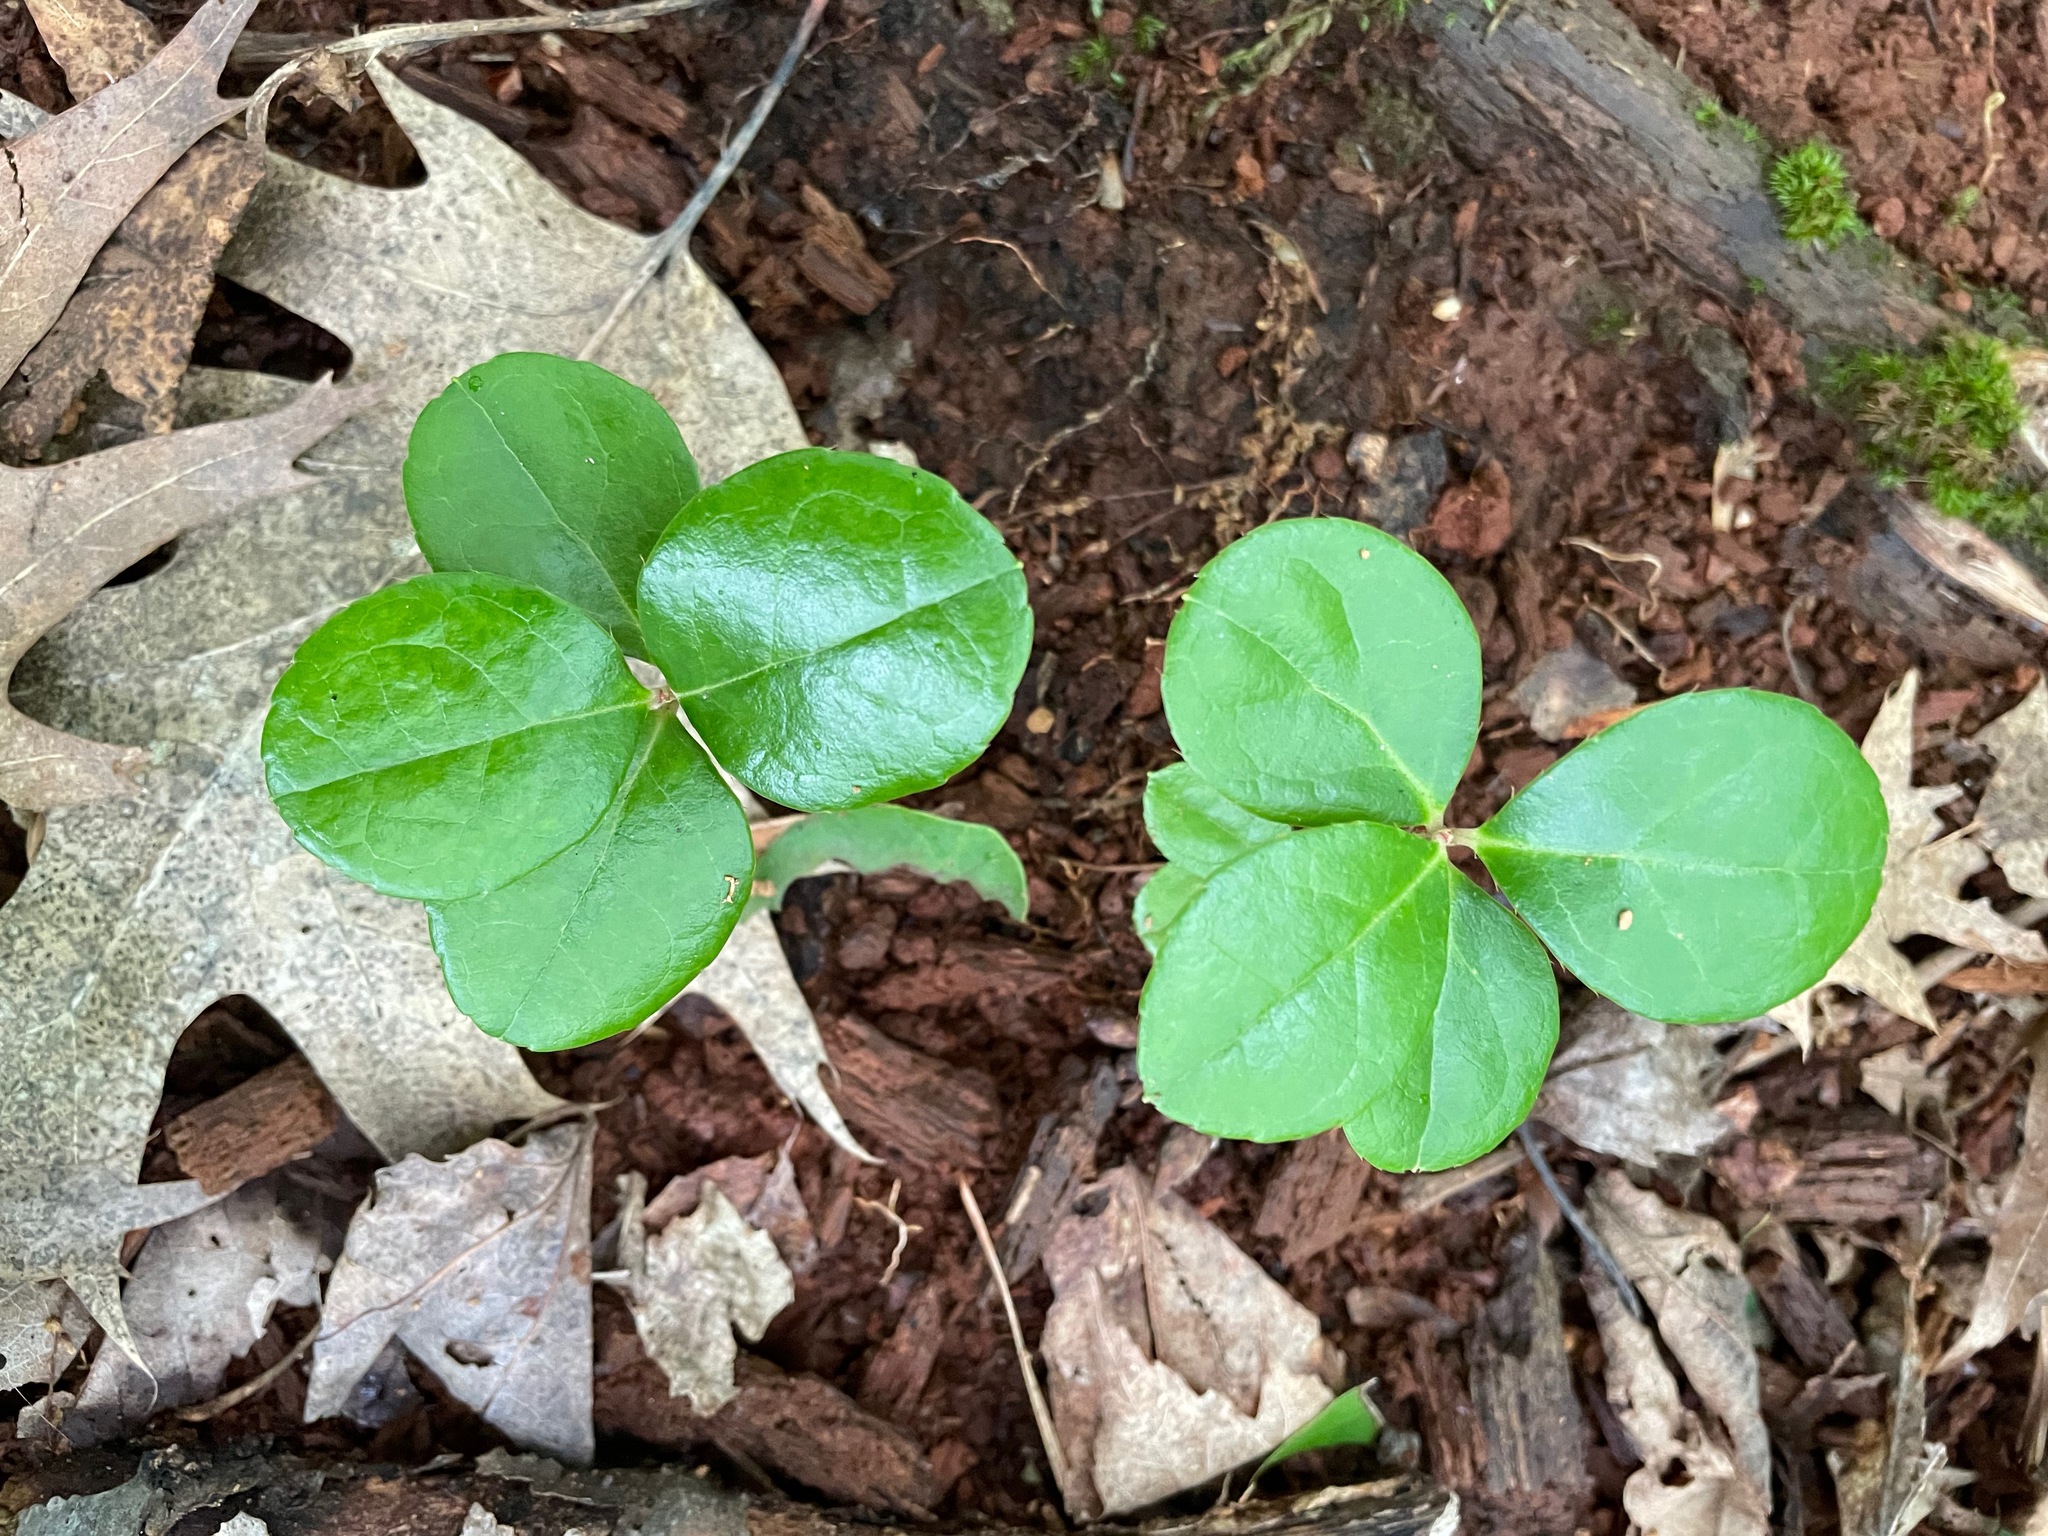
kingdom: Plantae
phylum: Tracheophyta
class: Magnoliopsida
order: Ericales
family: Ericaceae
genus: Gaultheria
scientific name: Gaultheria procumbens
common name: Checkerberry
